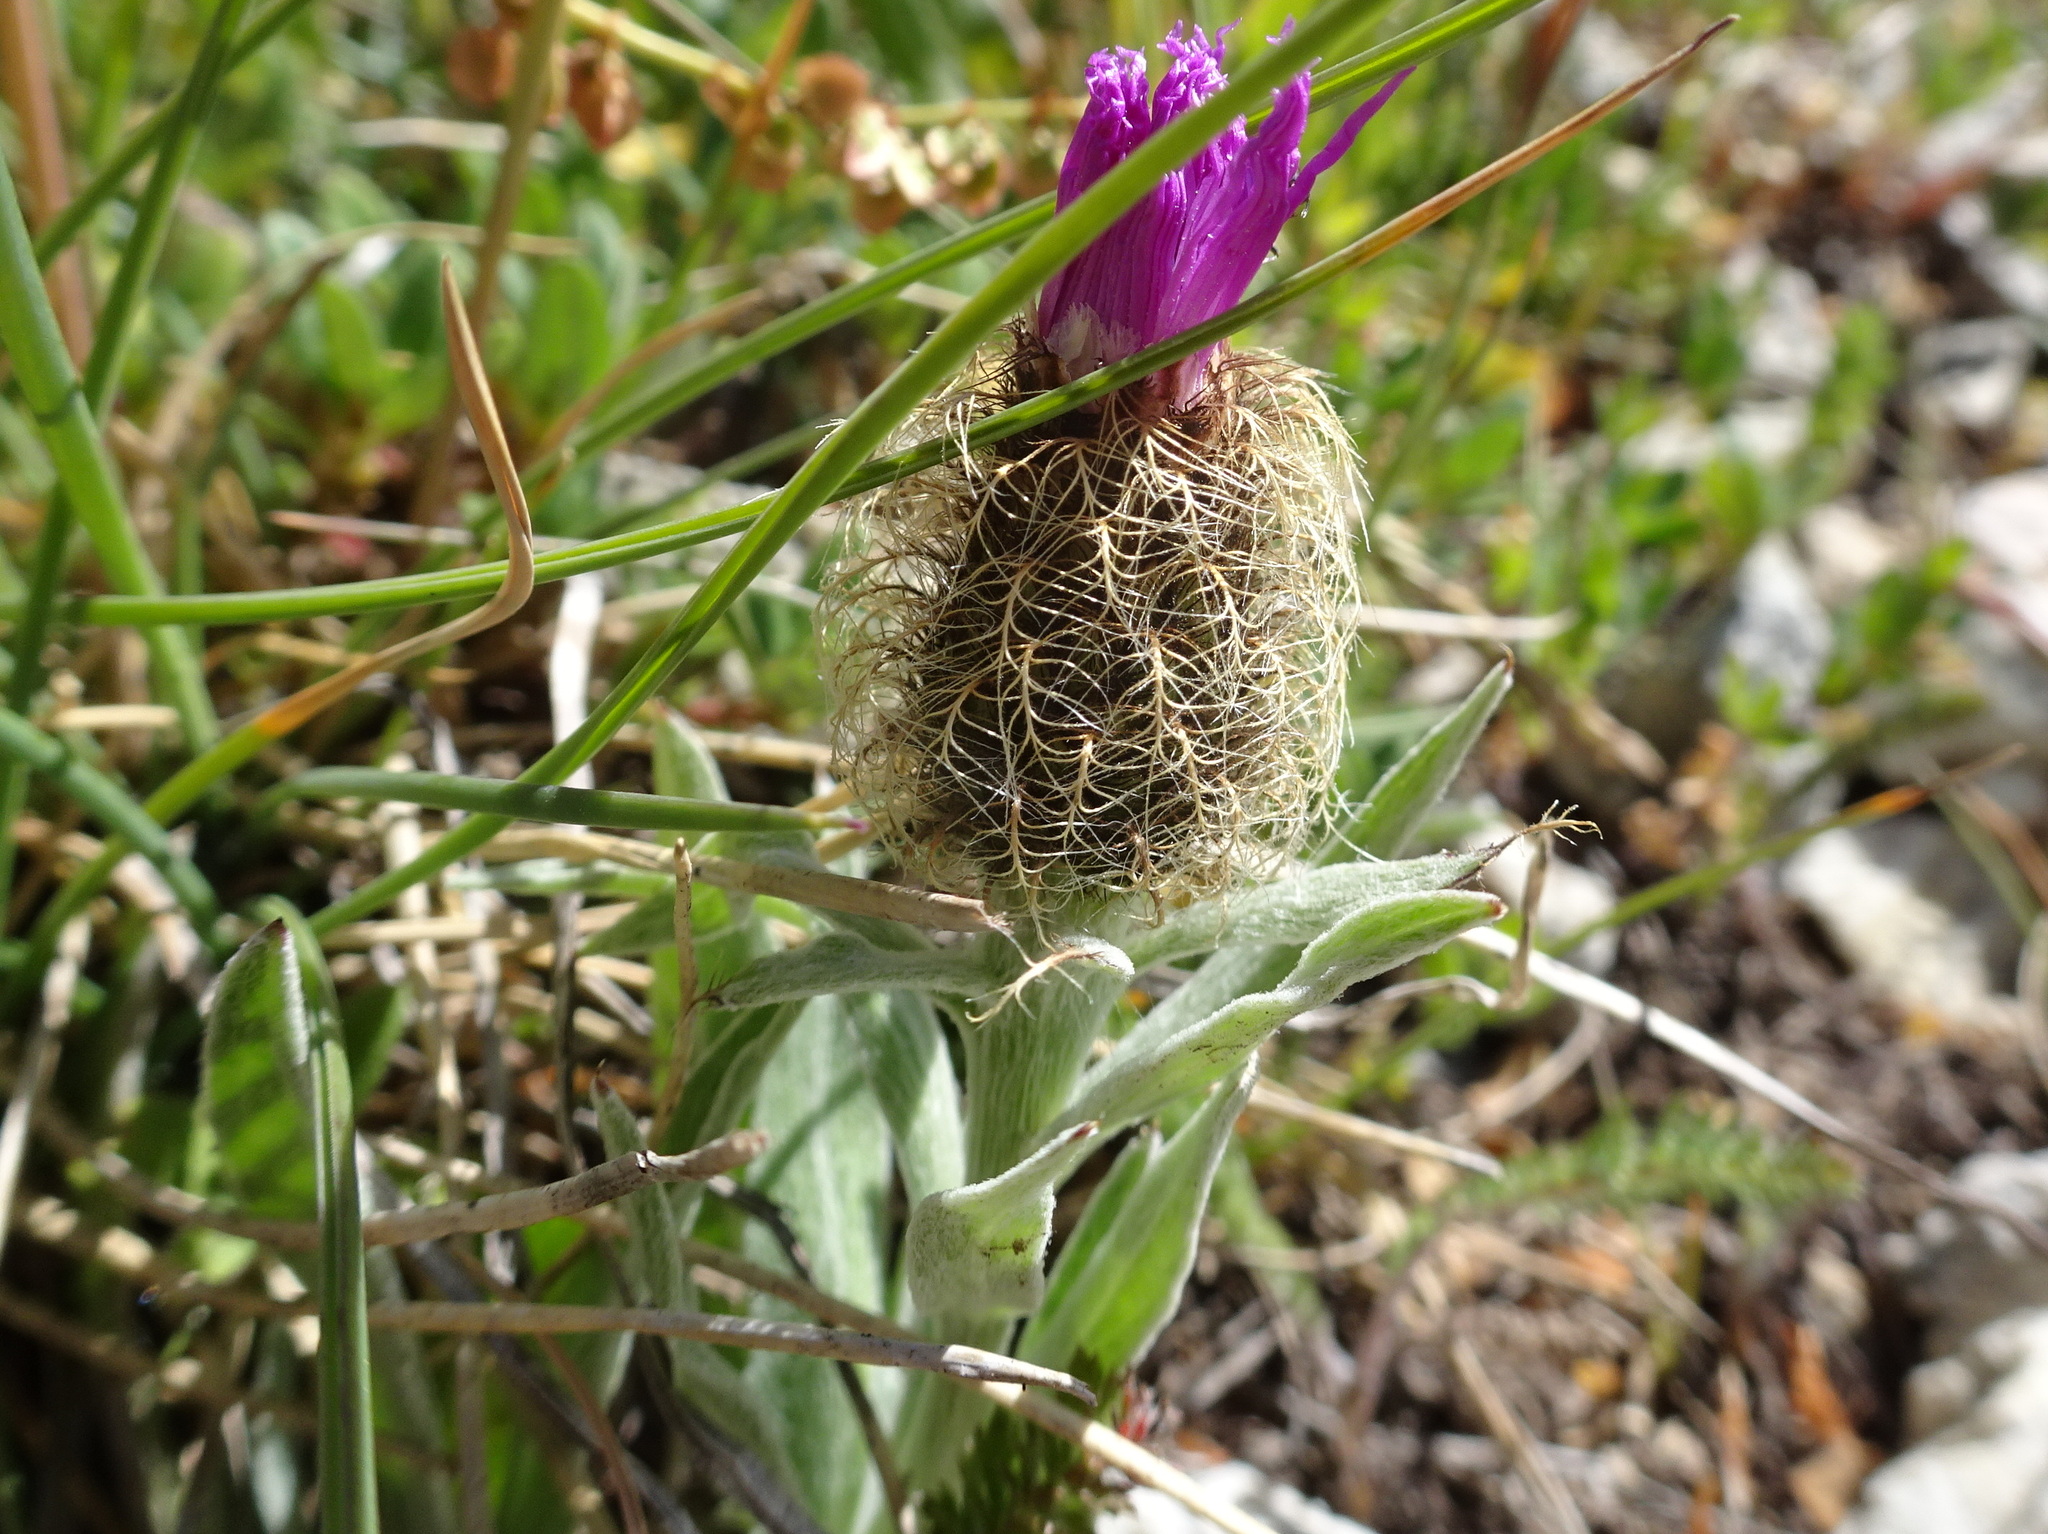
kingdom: Plantae
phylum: Tracheophyta
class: Magnoliopsida
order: Asterales
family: Asteraceae
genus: Centaurea
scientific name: Centaurea nervosa
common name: Singleflower knapweed
